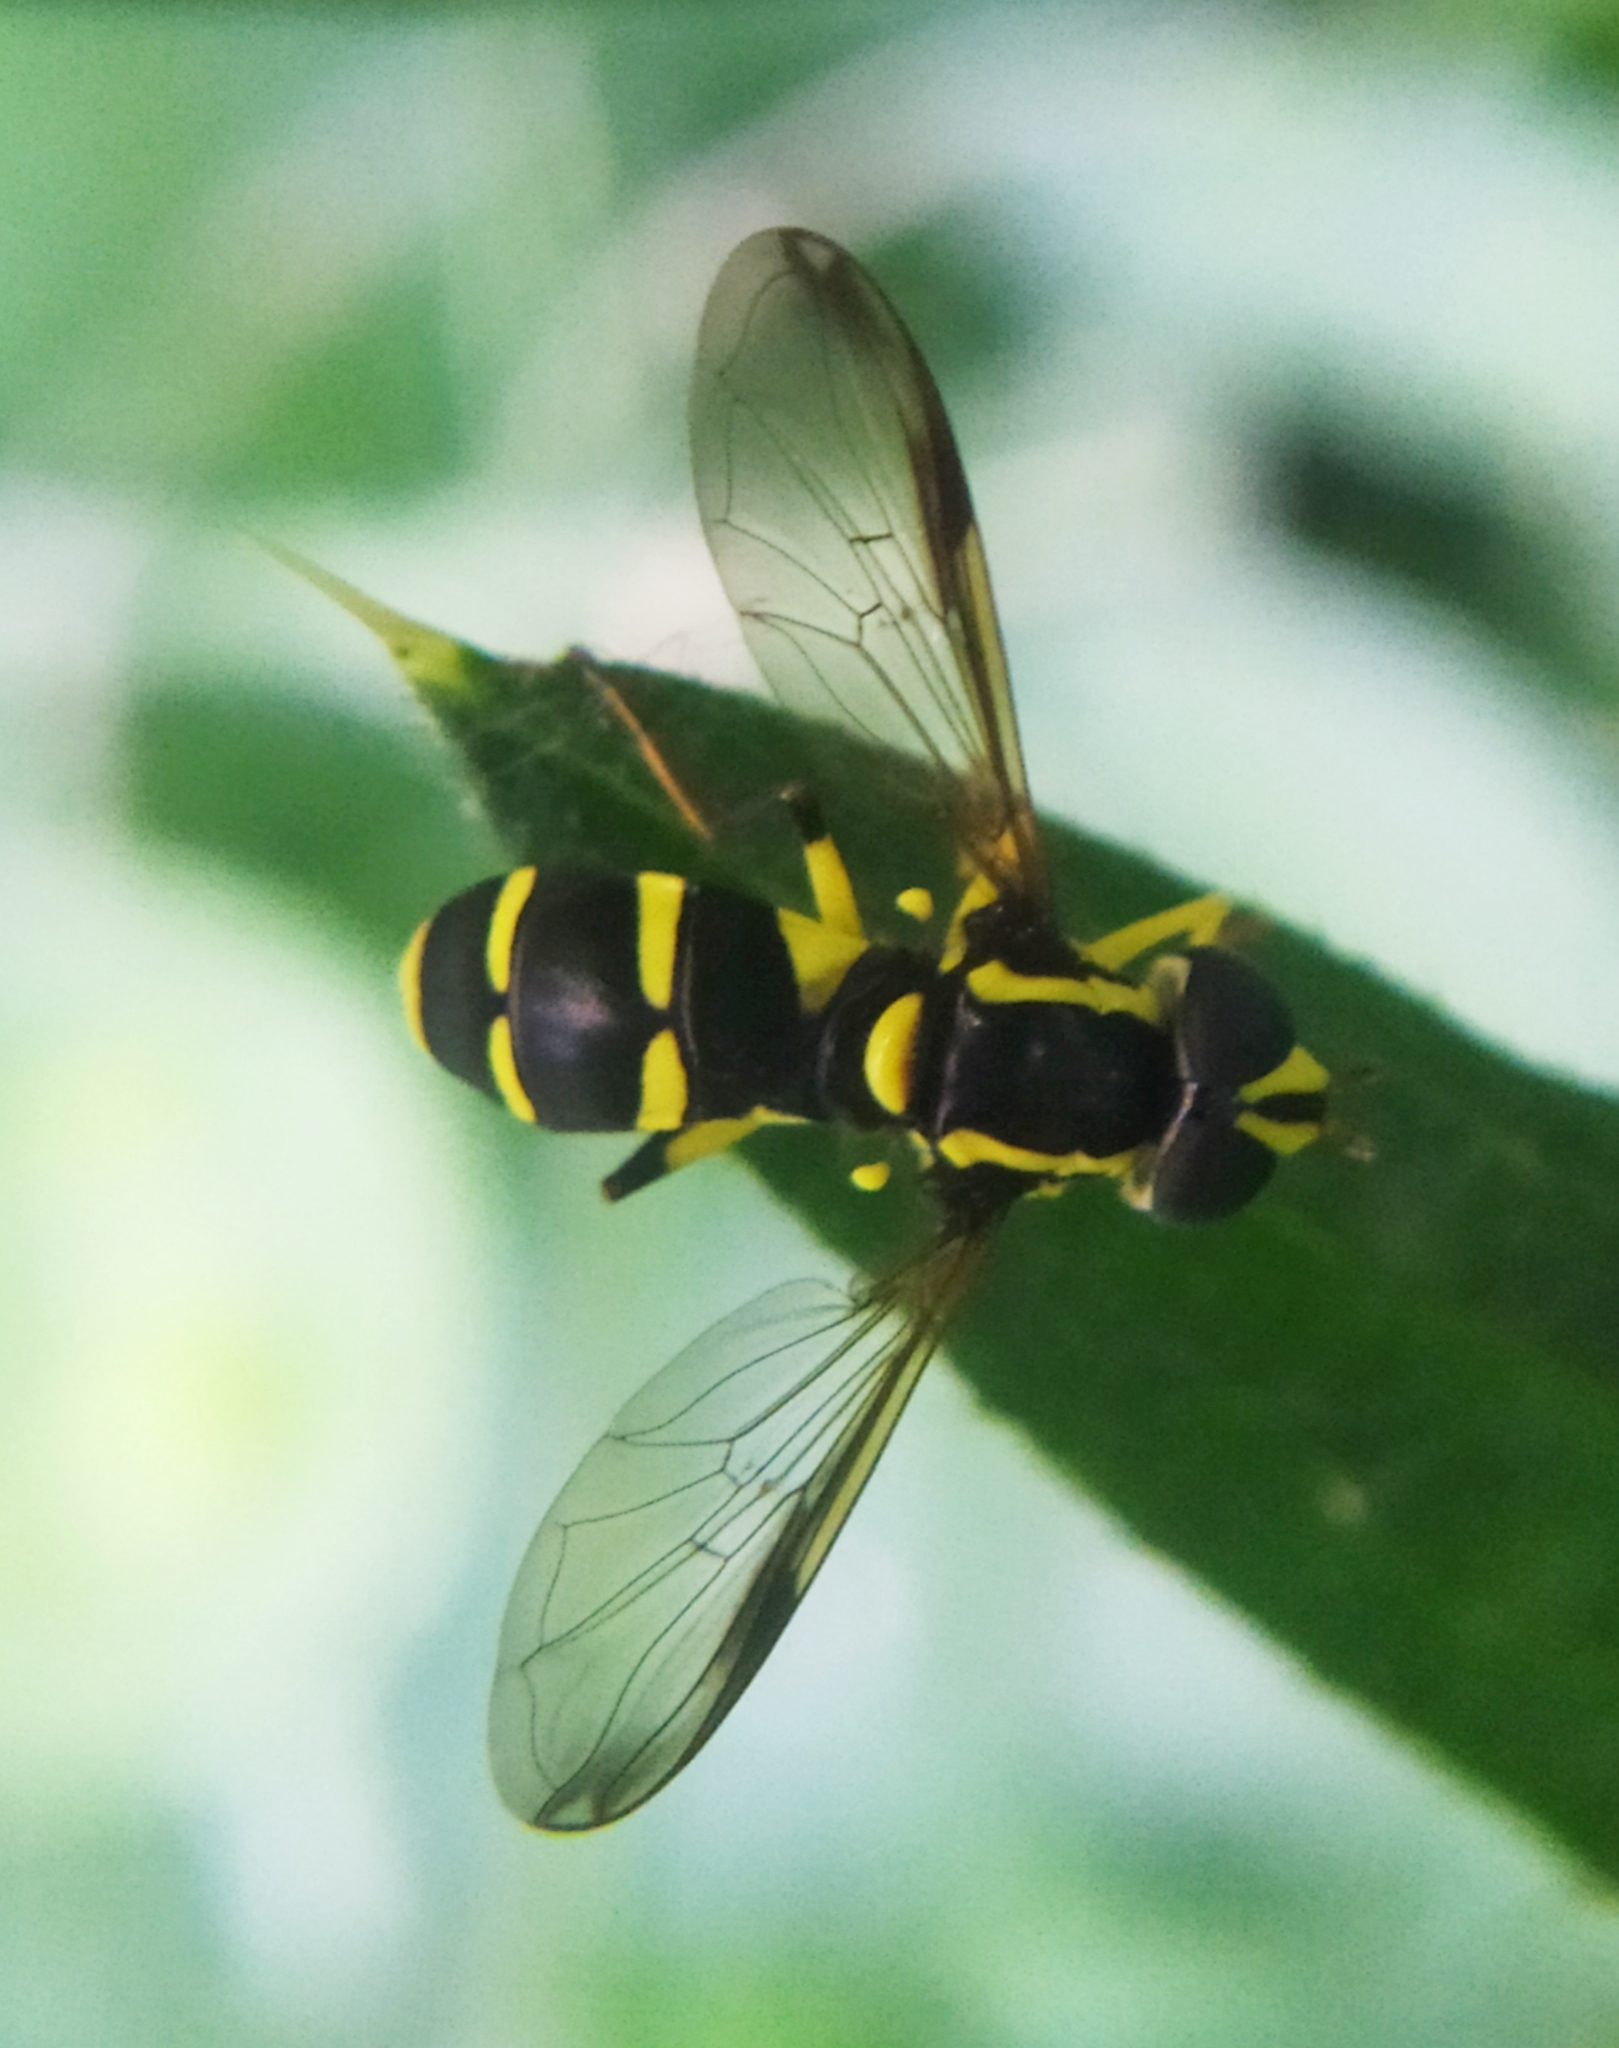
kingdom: Animalia
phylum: Arthropoda
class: Insecta
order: Diptera
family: Syrphidae
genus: Philhelius
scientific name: Philhelius dives
